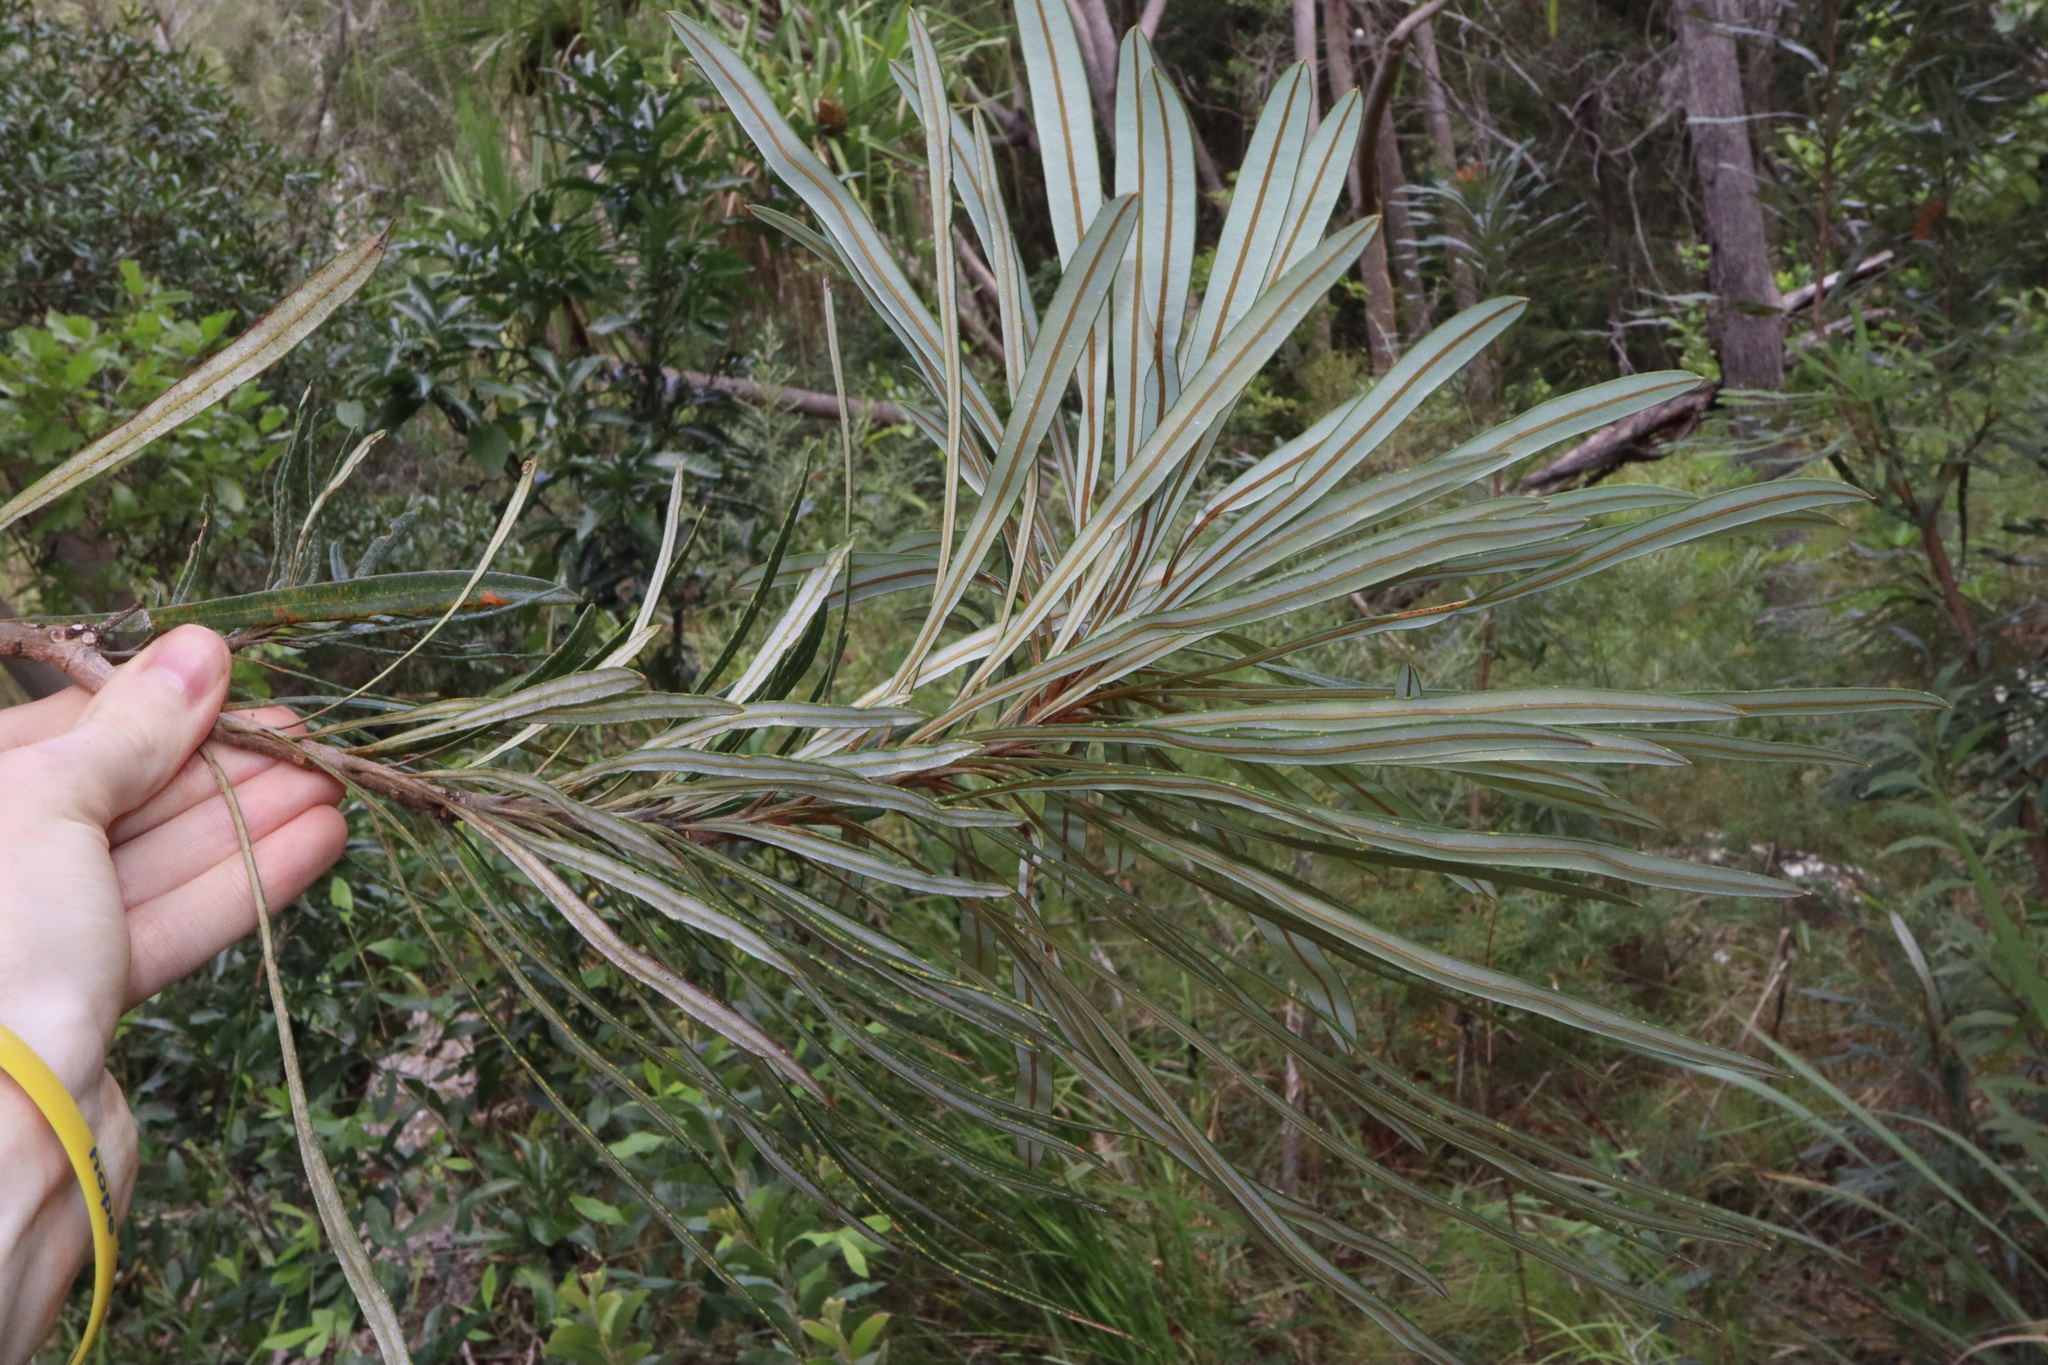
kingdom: Plantae
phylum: Tracheophyta
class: Magnoliopsida
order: Proteales
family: Proteaceae
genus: Banksia
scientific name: Banksia aquilonia
